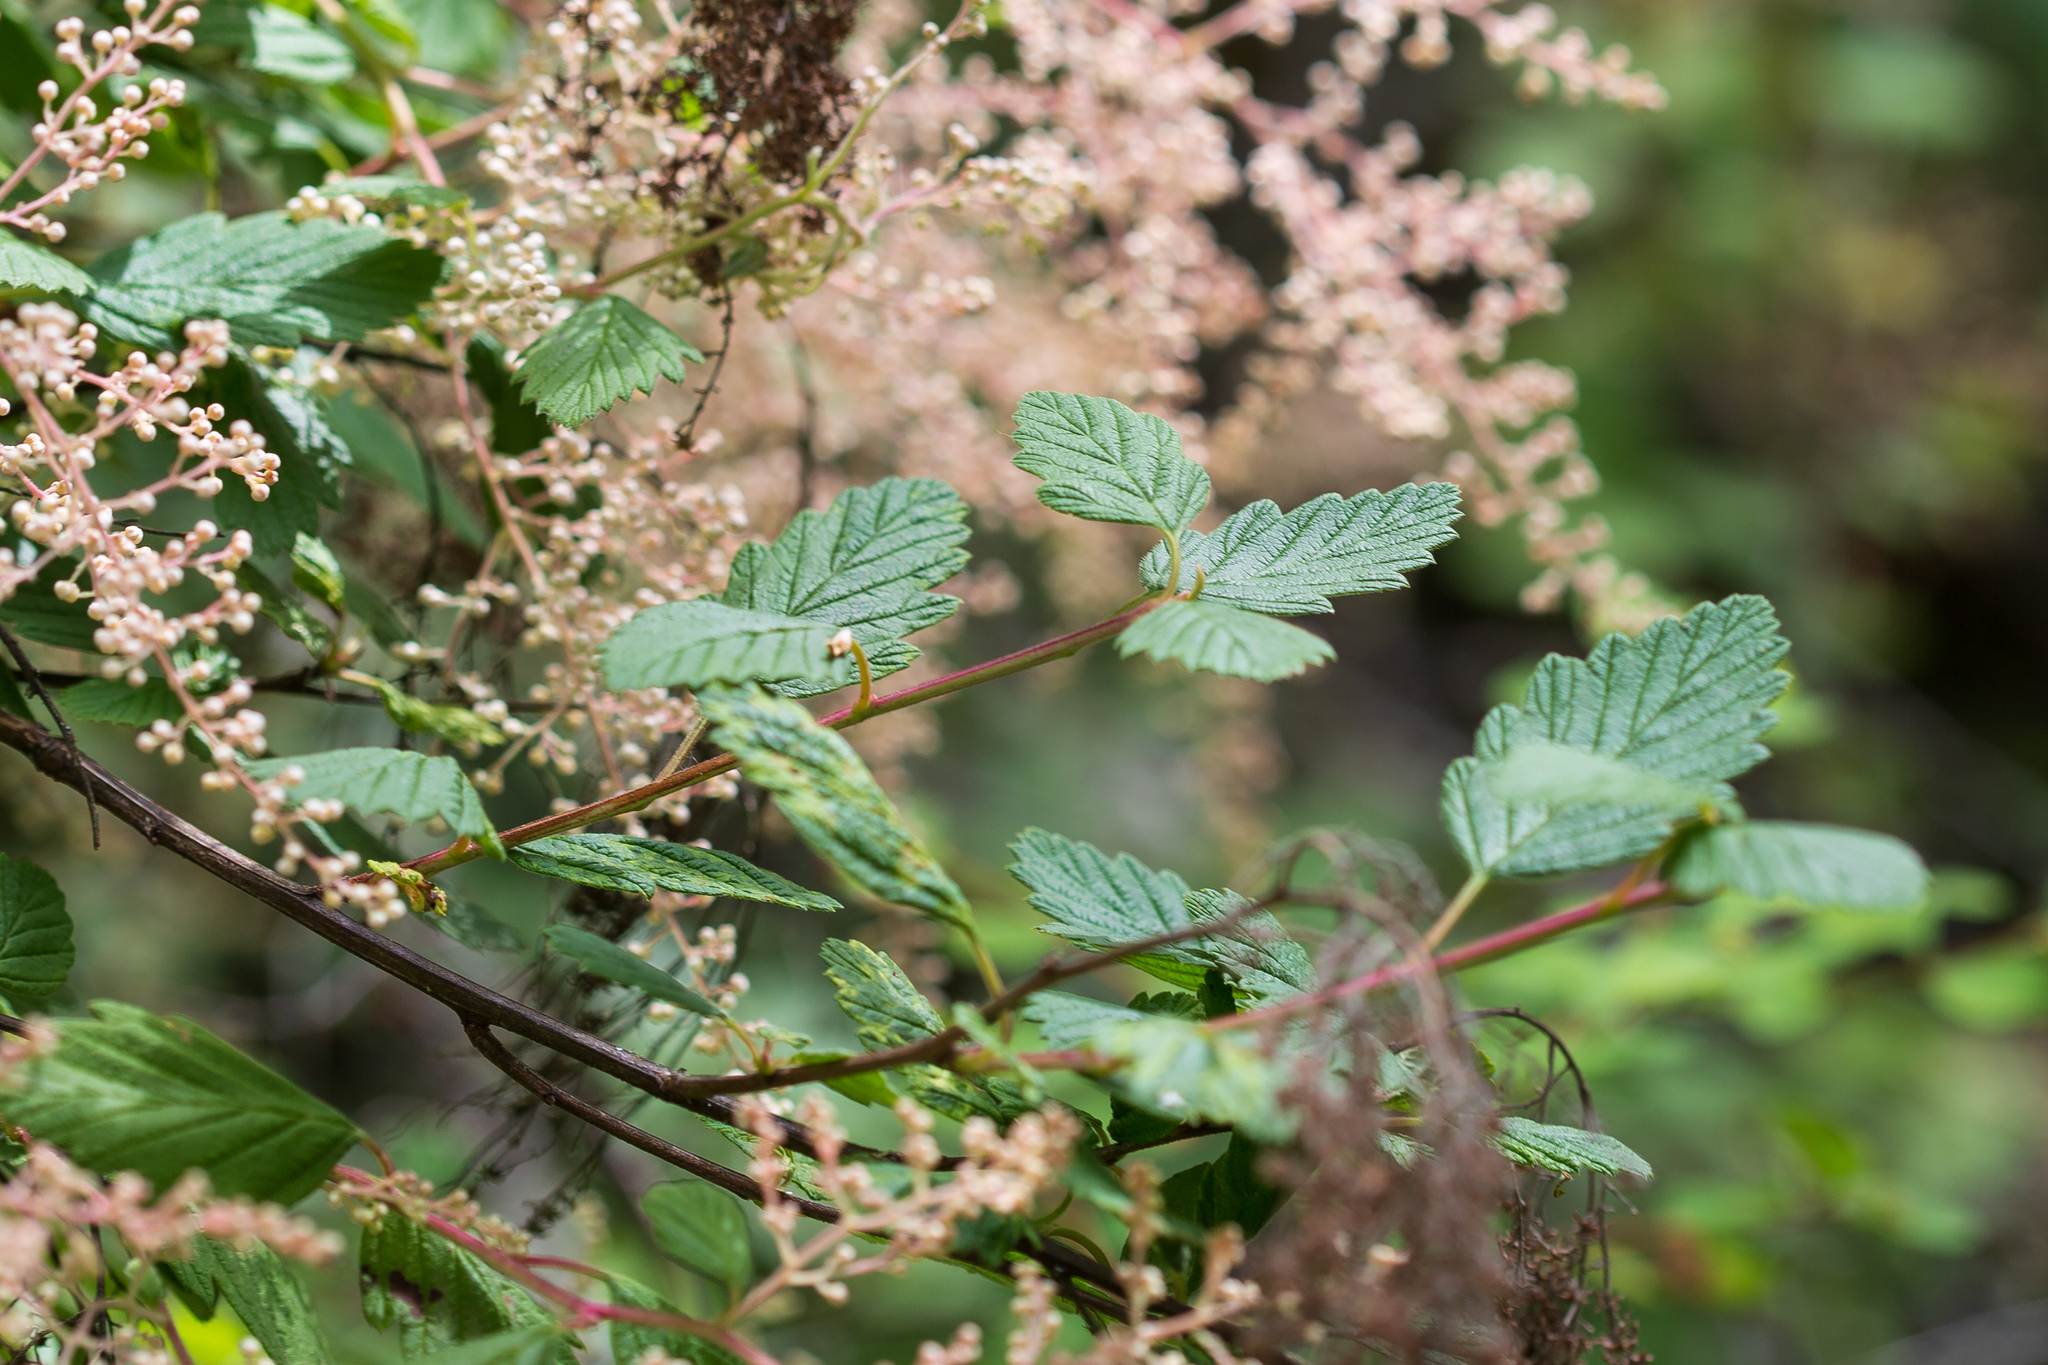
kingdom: Plantae
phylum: Tracheophyta
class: Magnoliopsida
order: Rosales
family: Rosaceae
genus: Holodiscus
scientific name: Holodiscus discolor
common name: Oceanspray
